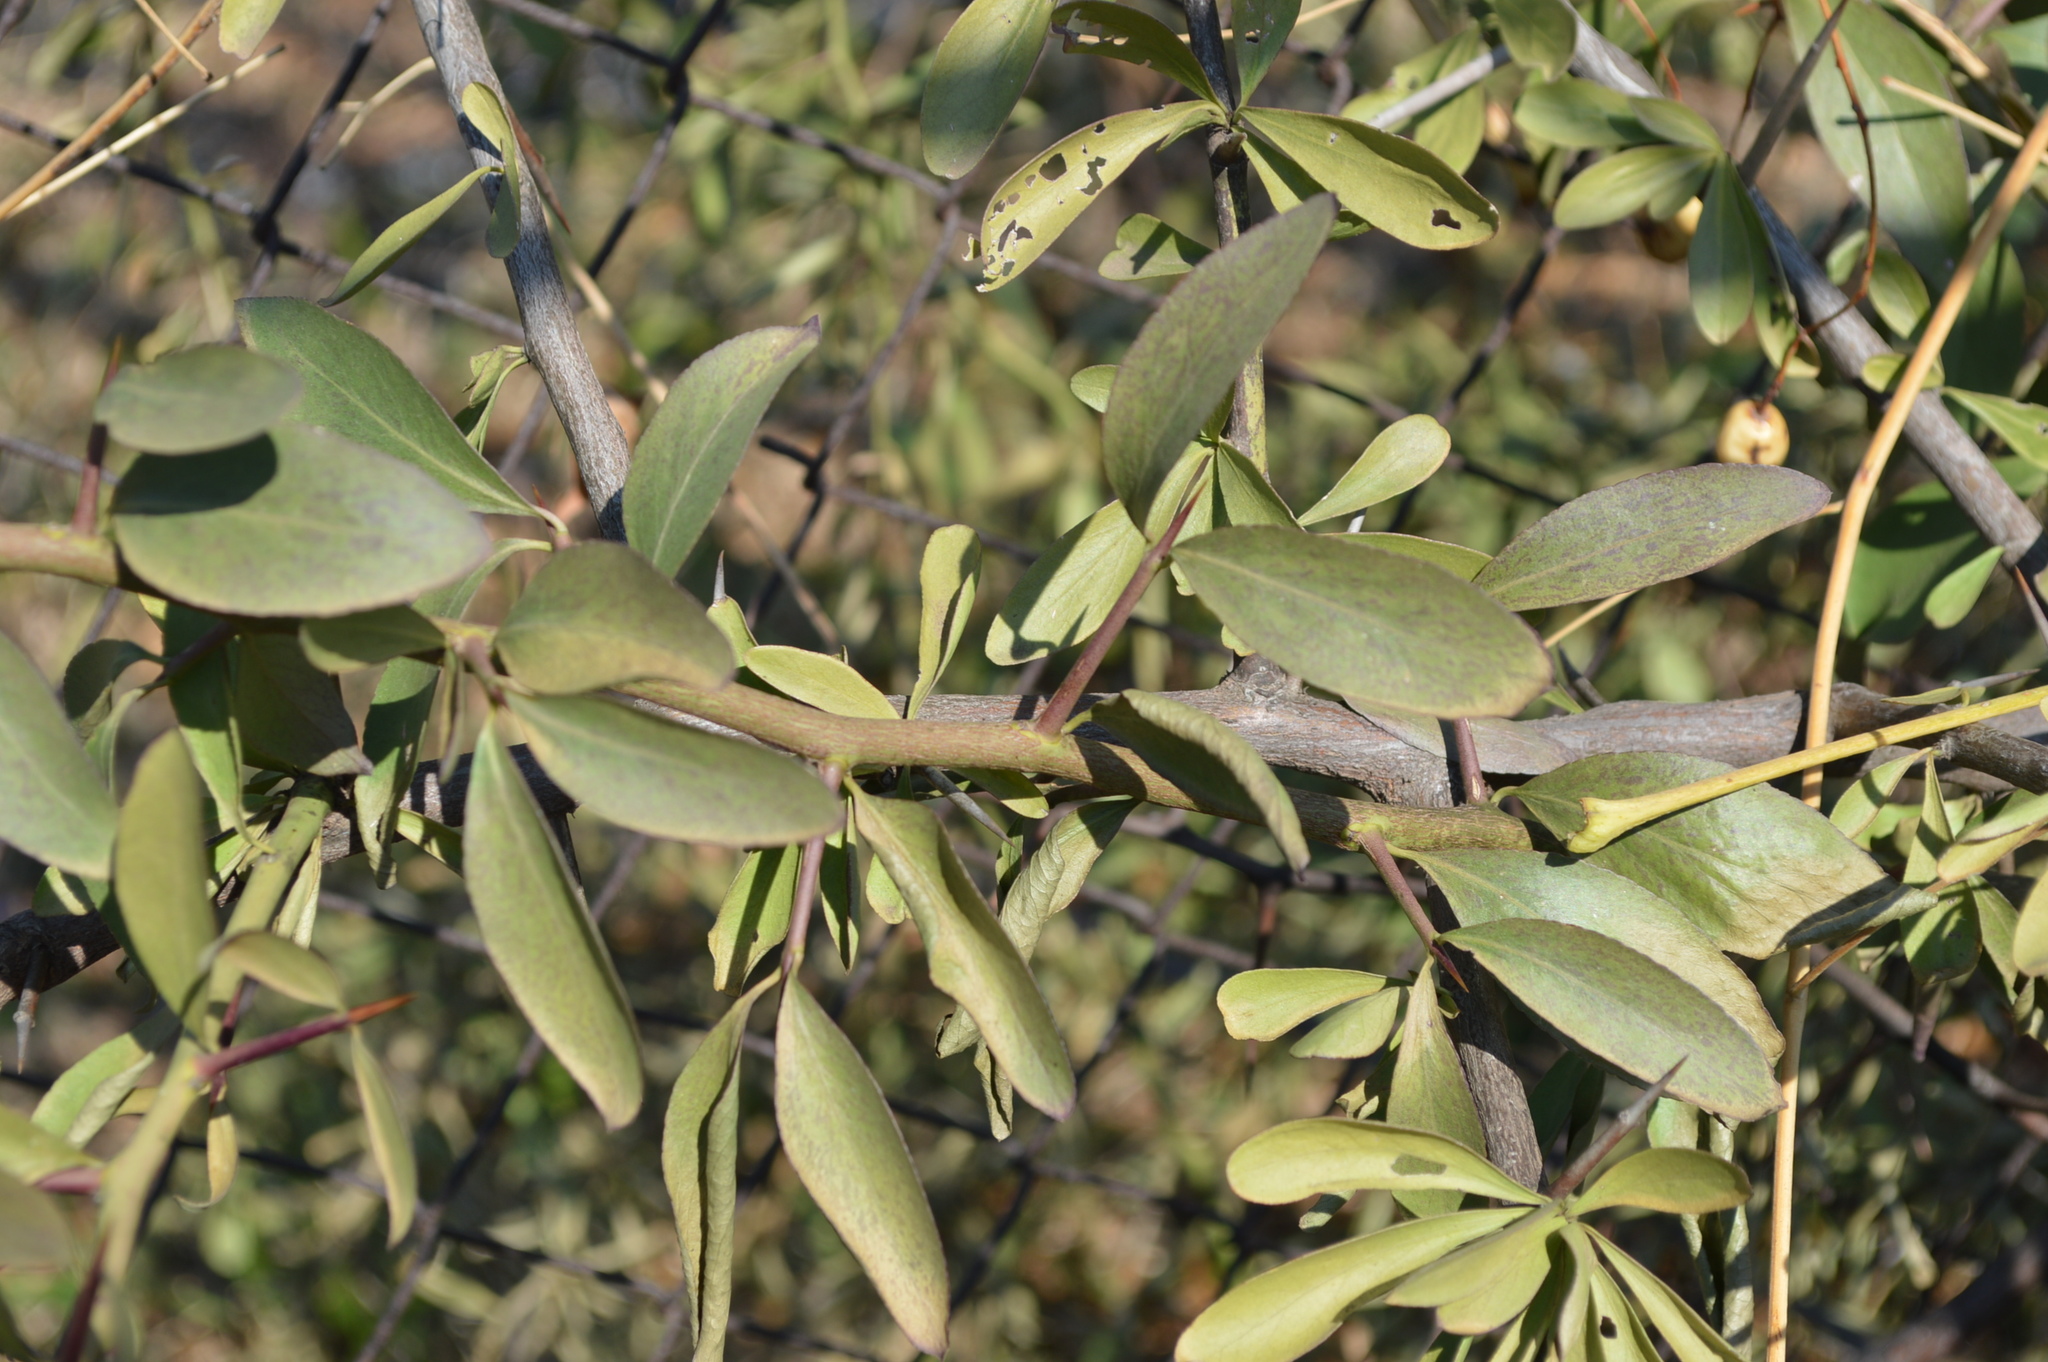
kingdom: Plantae
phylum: Tracheophyta
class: Magnoliopsida
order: Celastrales
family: Celastraceae
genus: Gymnosporia
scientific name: Gymnosporia buxifolia
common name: Common spike-thorn
